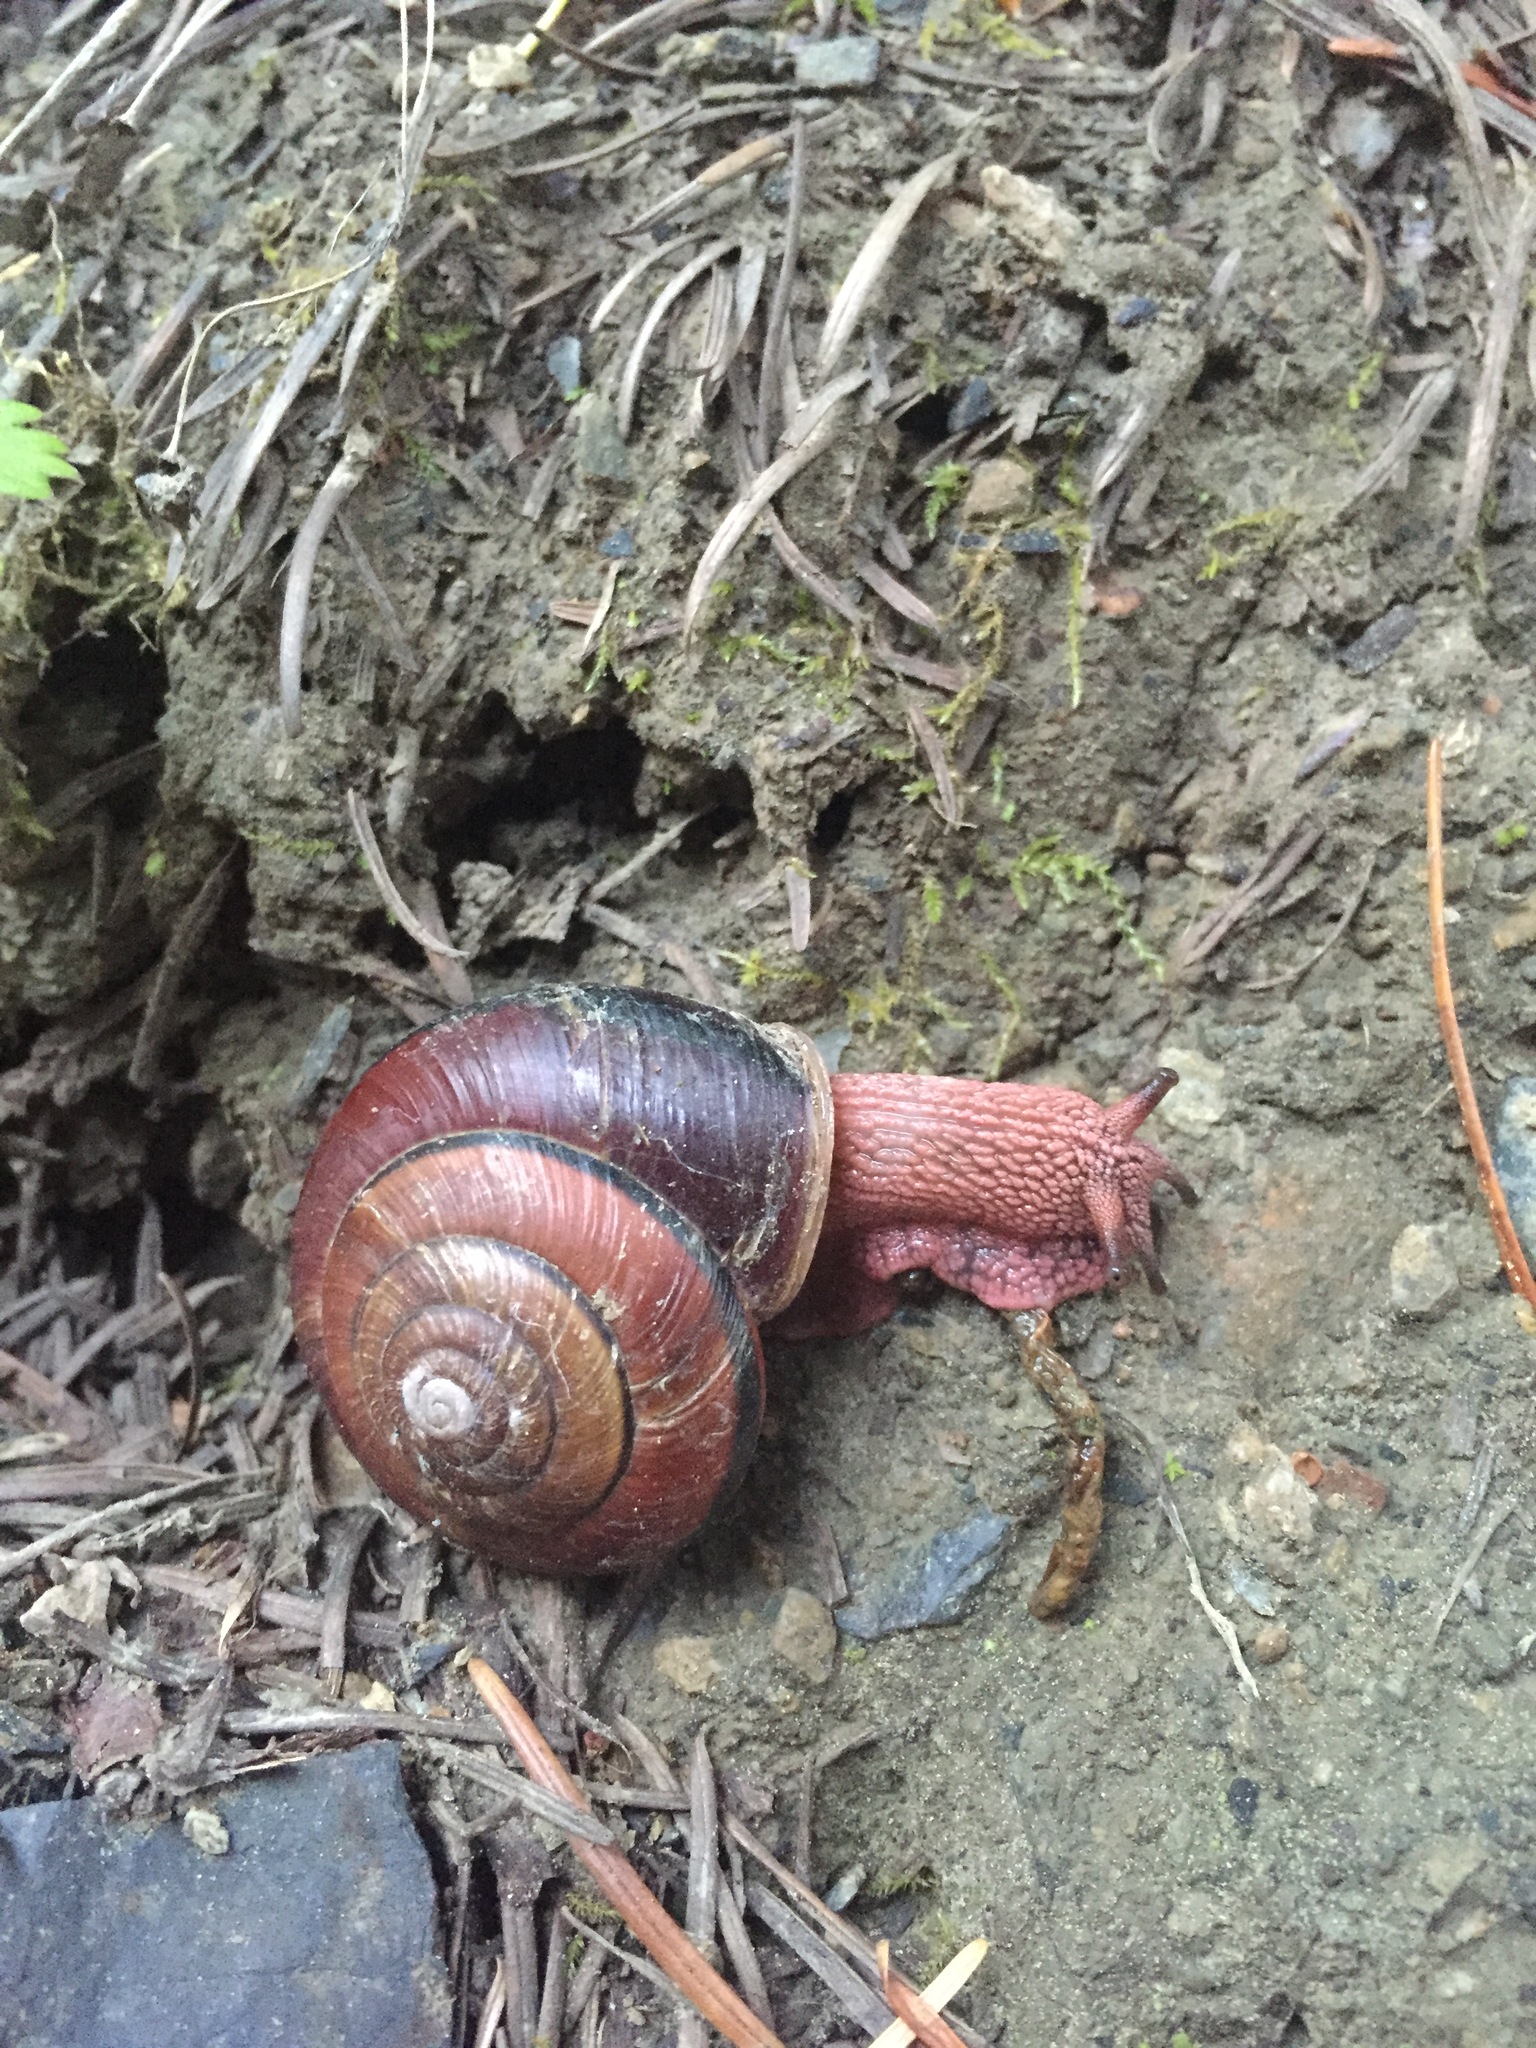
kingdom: Animalia
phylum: Mollusca
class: Gastropoda
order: Stylommatophora
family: Xanthonychidae
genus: Monadenia
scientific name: Monadenia fidelis
